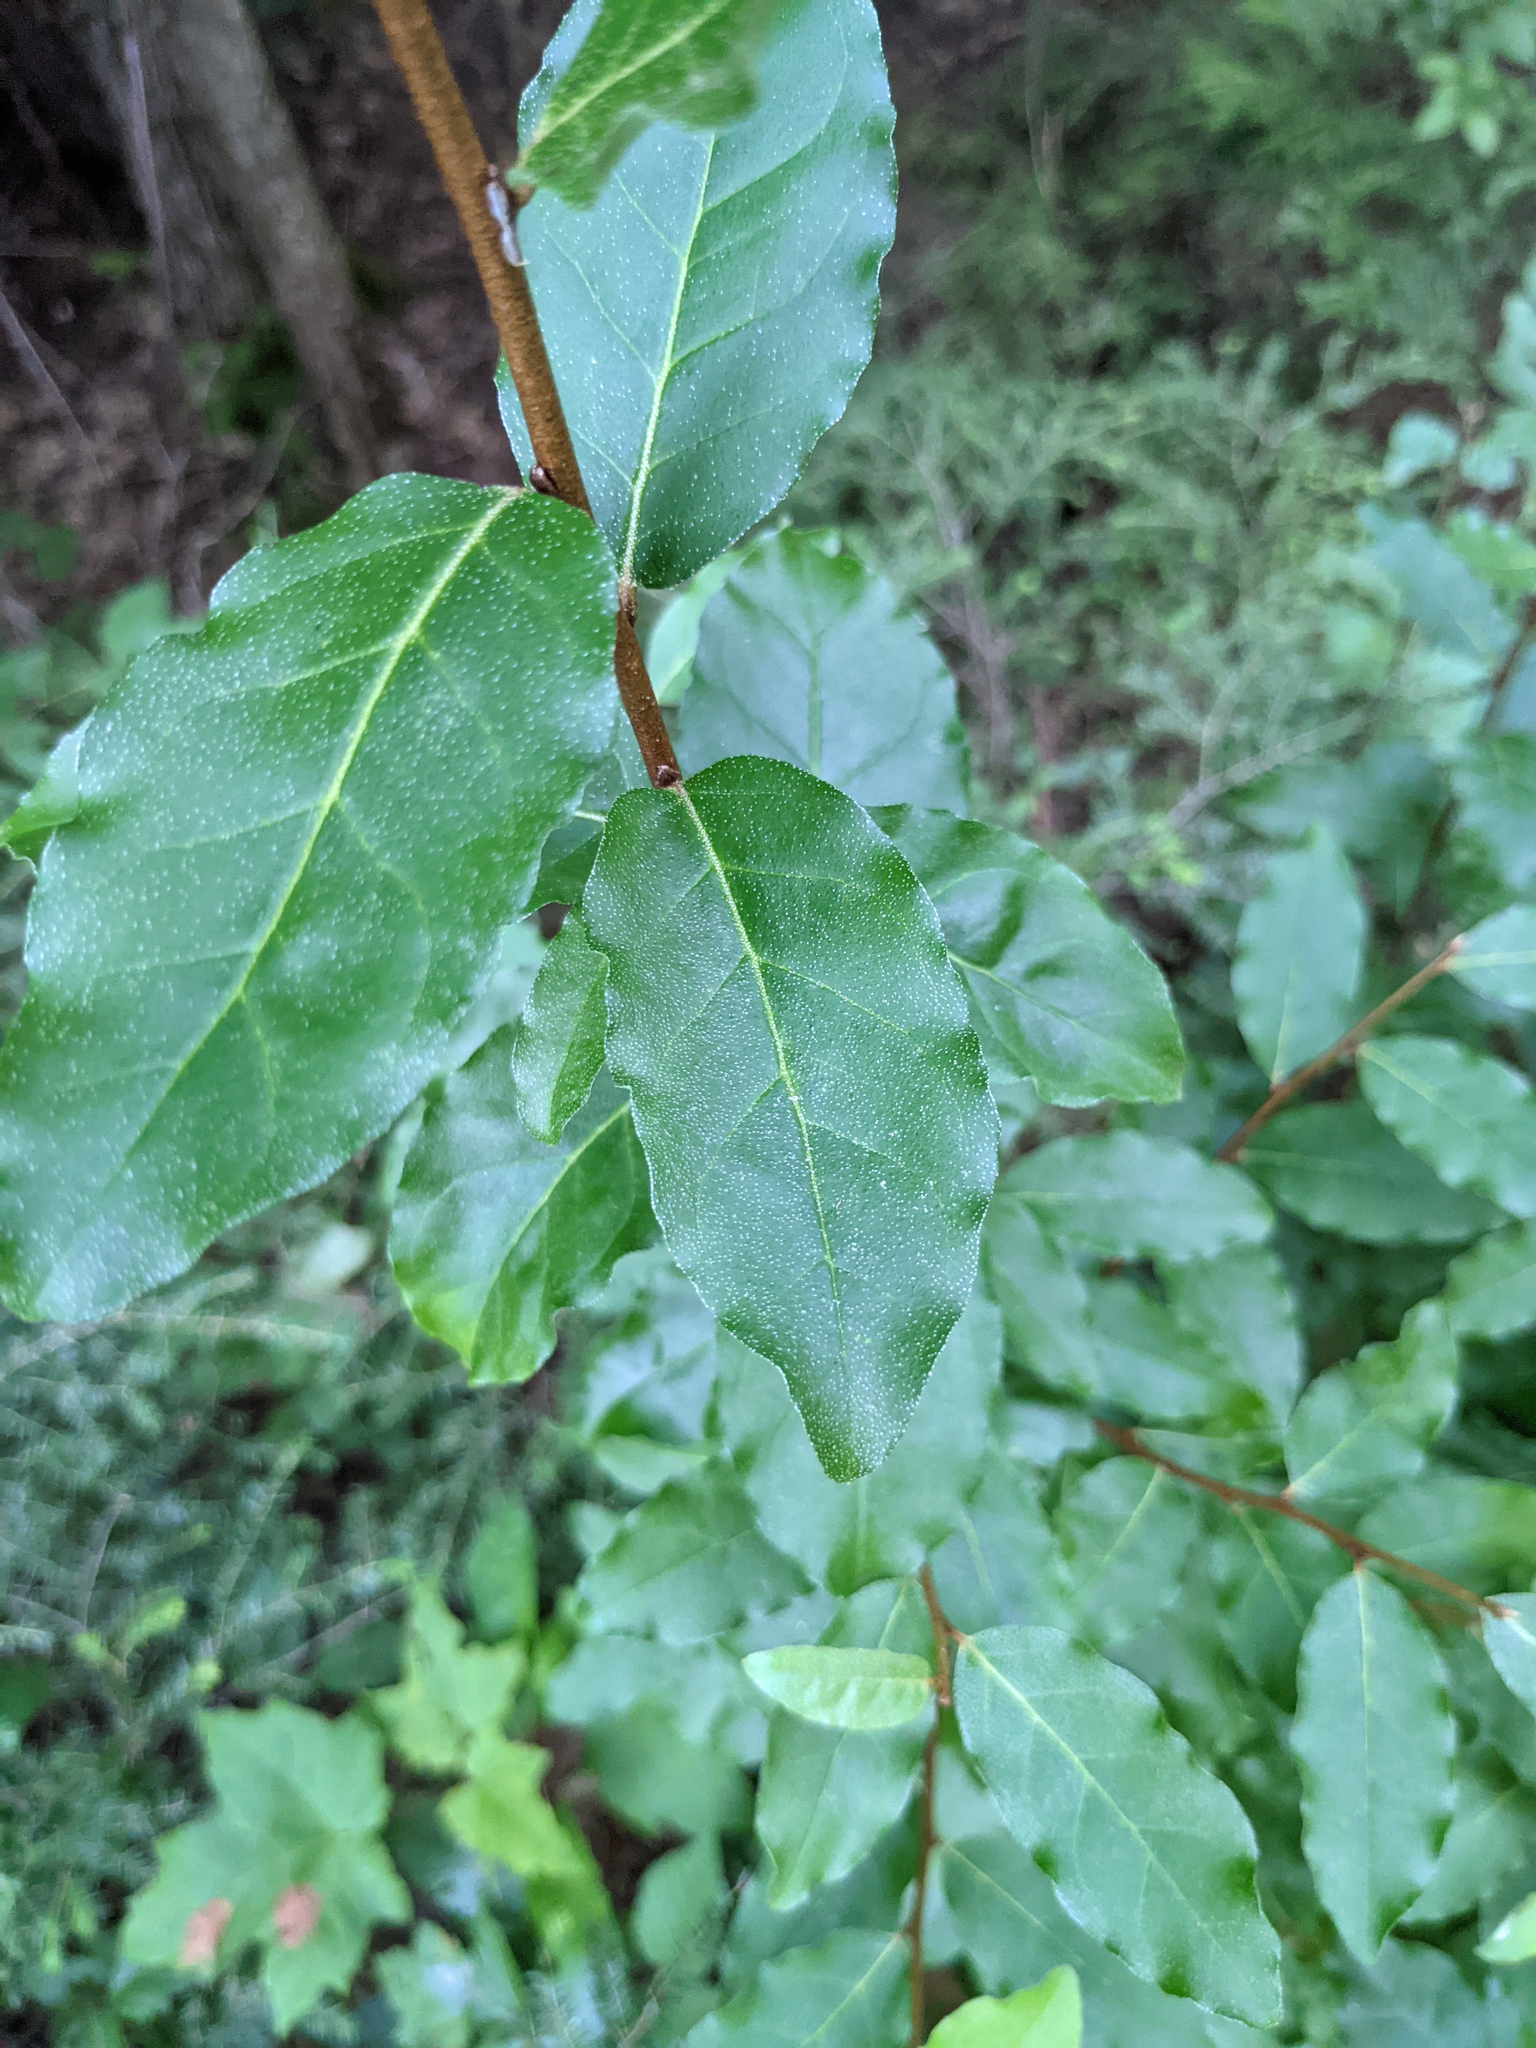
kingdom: Plantae
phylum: Tracheophyta
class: Magnoliopsida
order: Rosales
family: Elaeagnaceae
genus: Elaeagnus
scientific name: Elaeagnus umbellata
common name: Autumn olive
